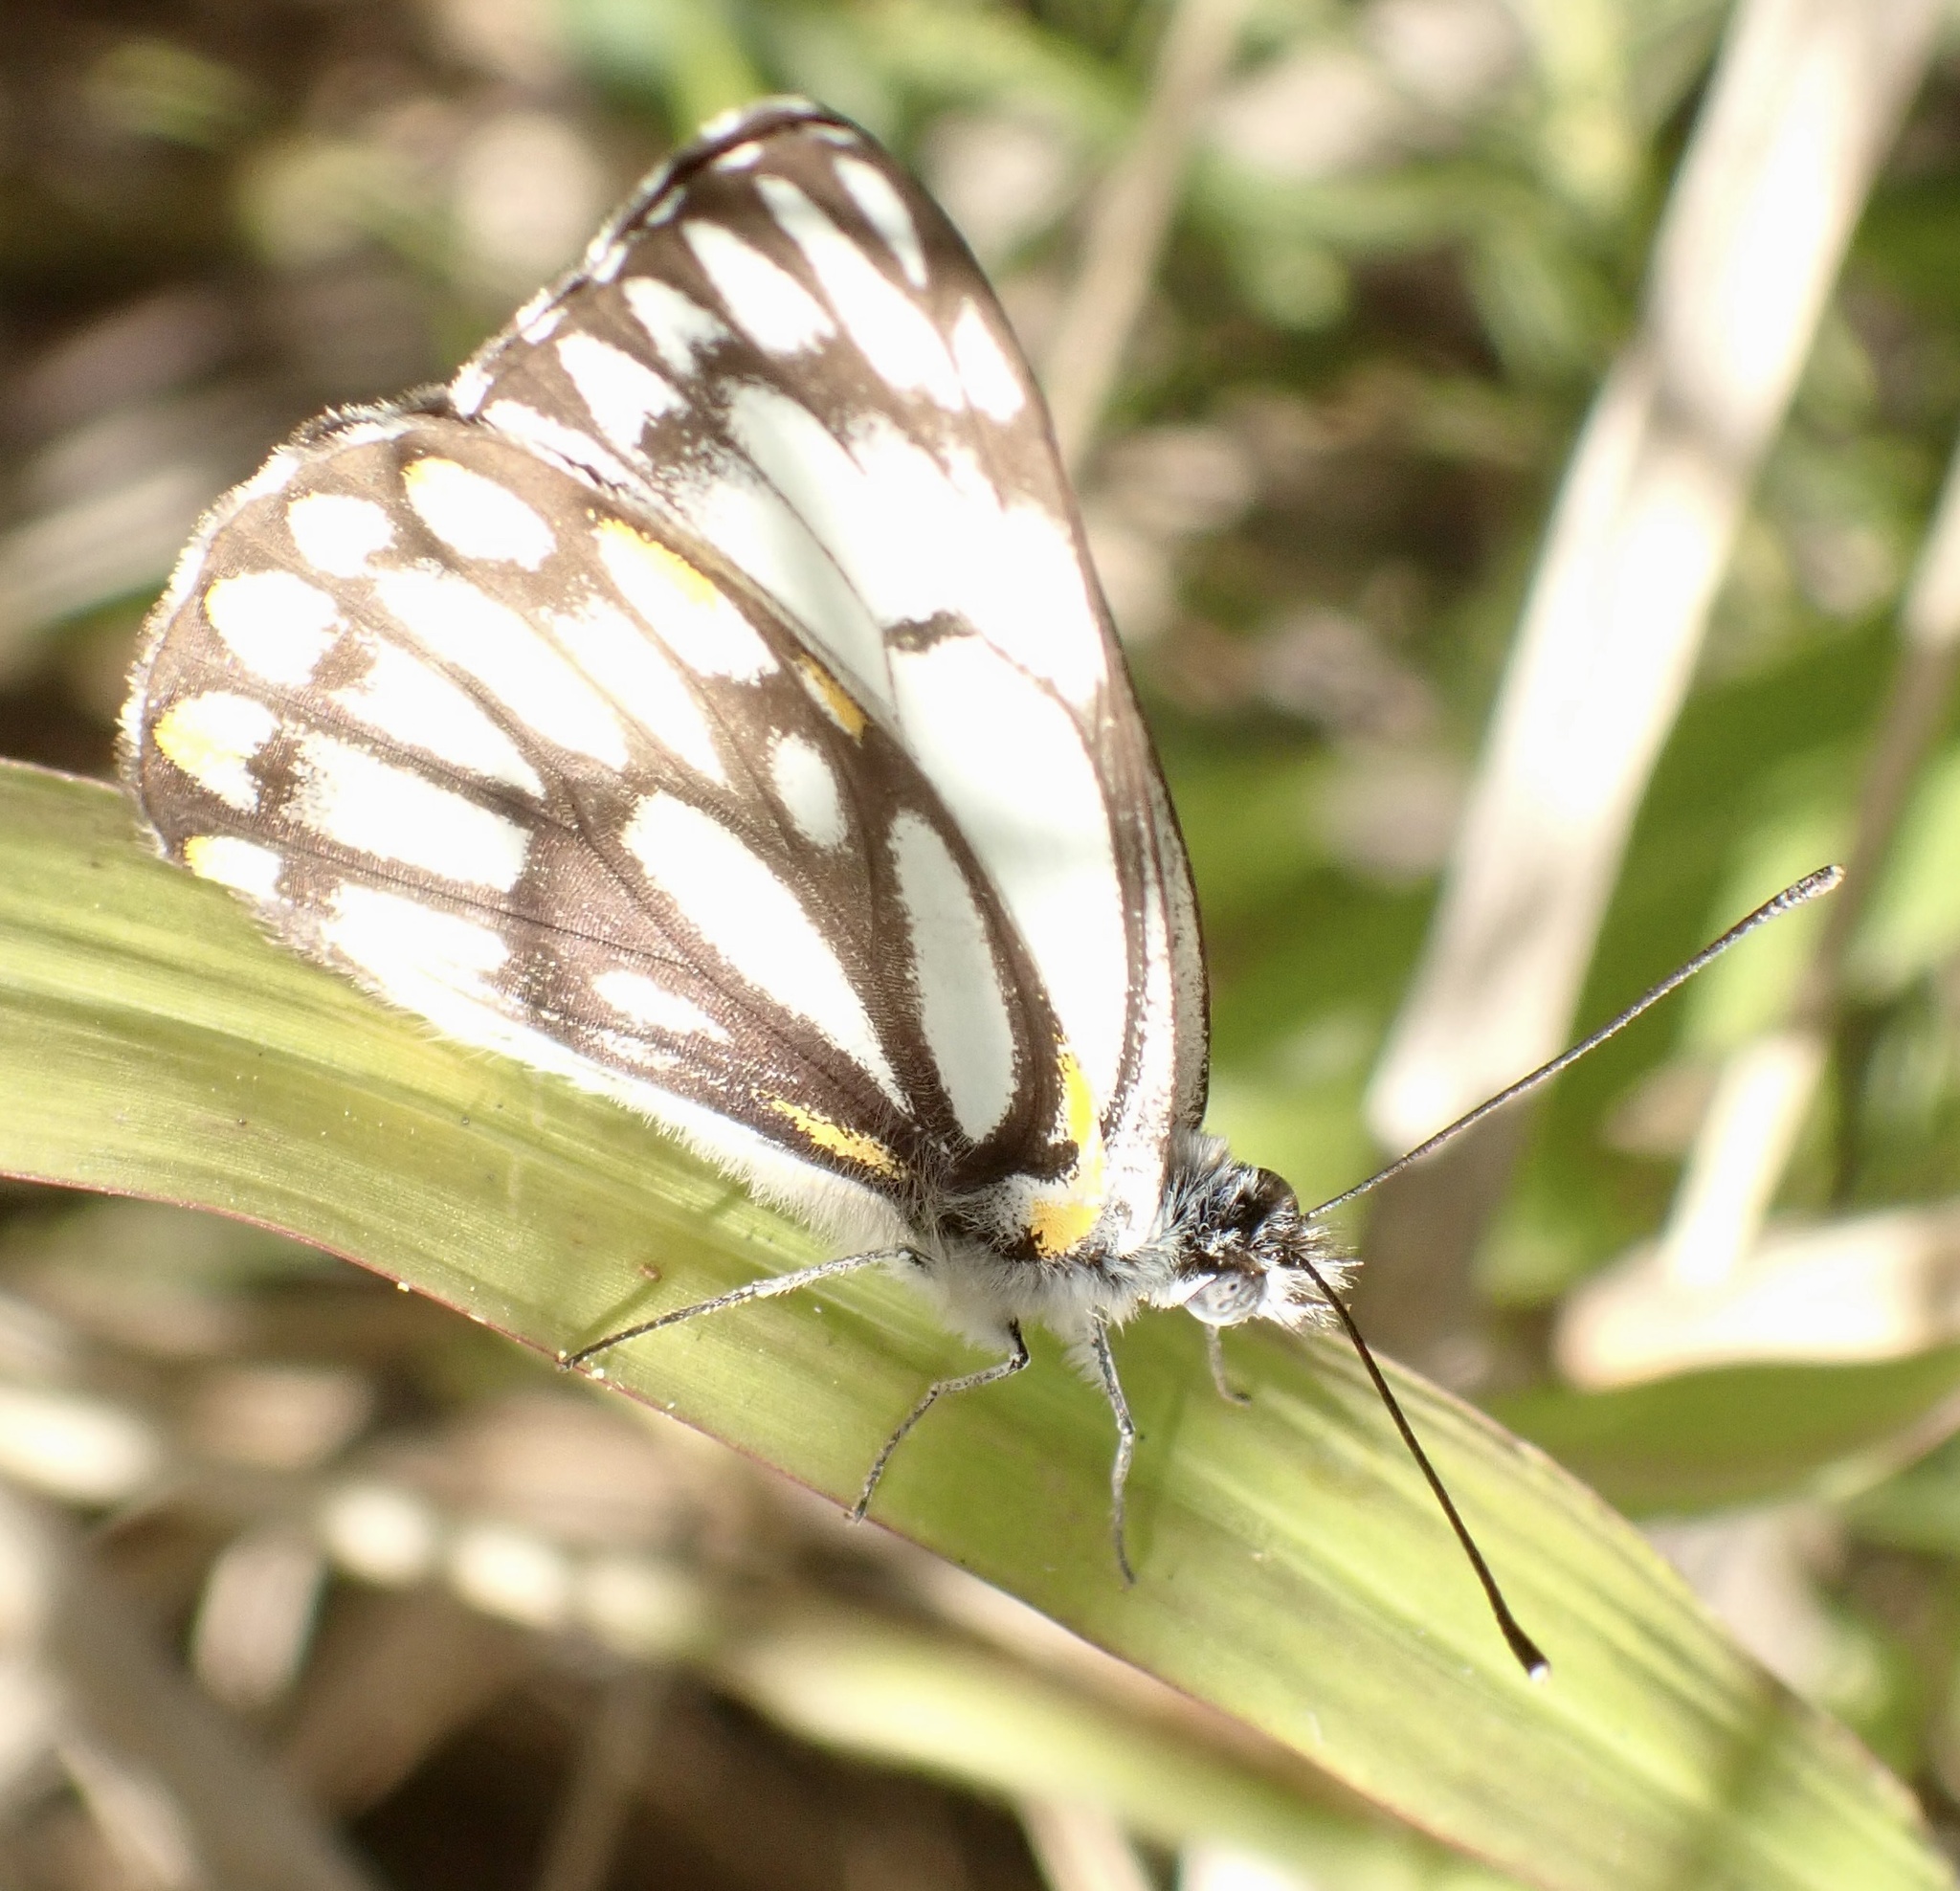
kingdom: Animalia
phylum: Arthropoda
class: Insecta
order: Lepidoptera
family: Pieridae
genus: Belenois
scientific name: Belenois java
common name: Caper white
